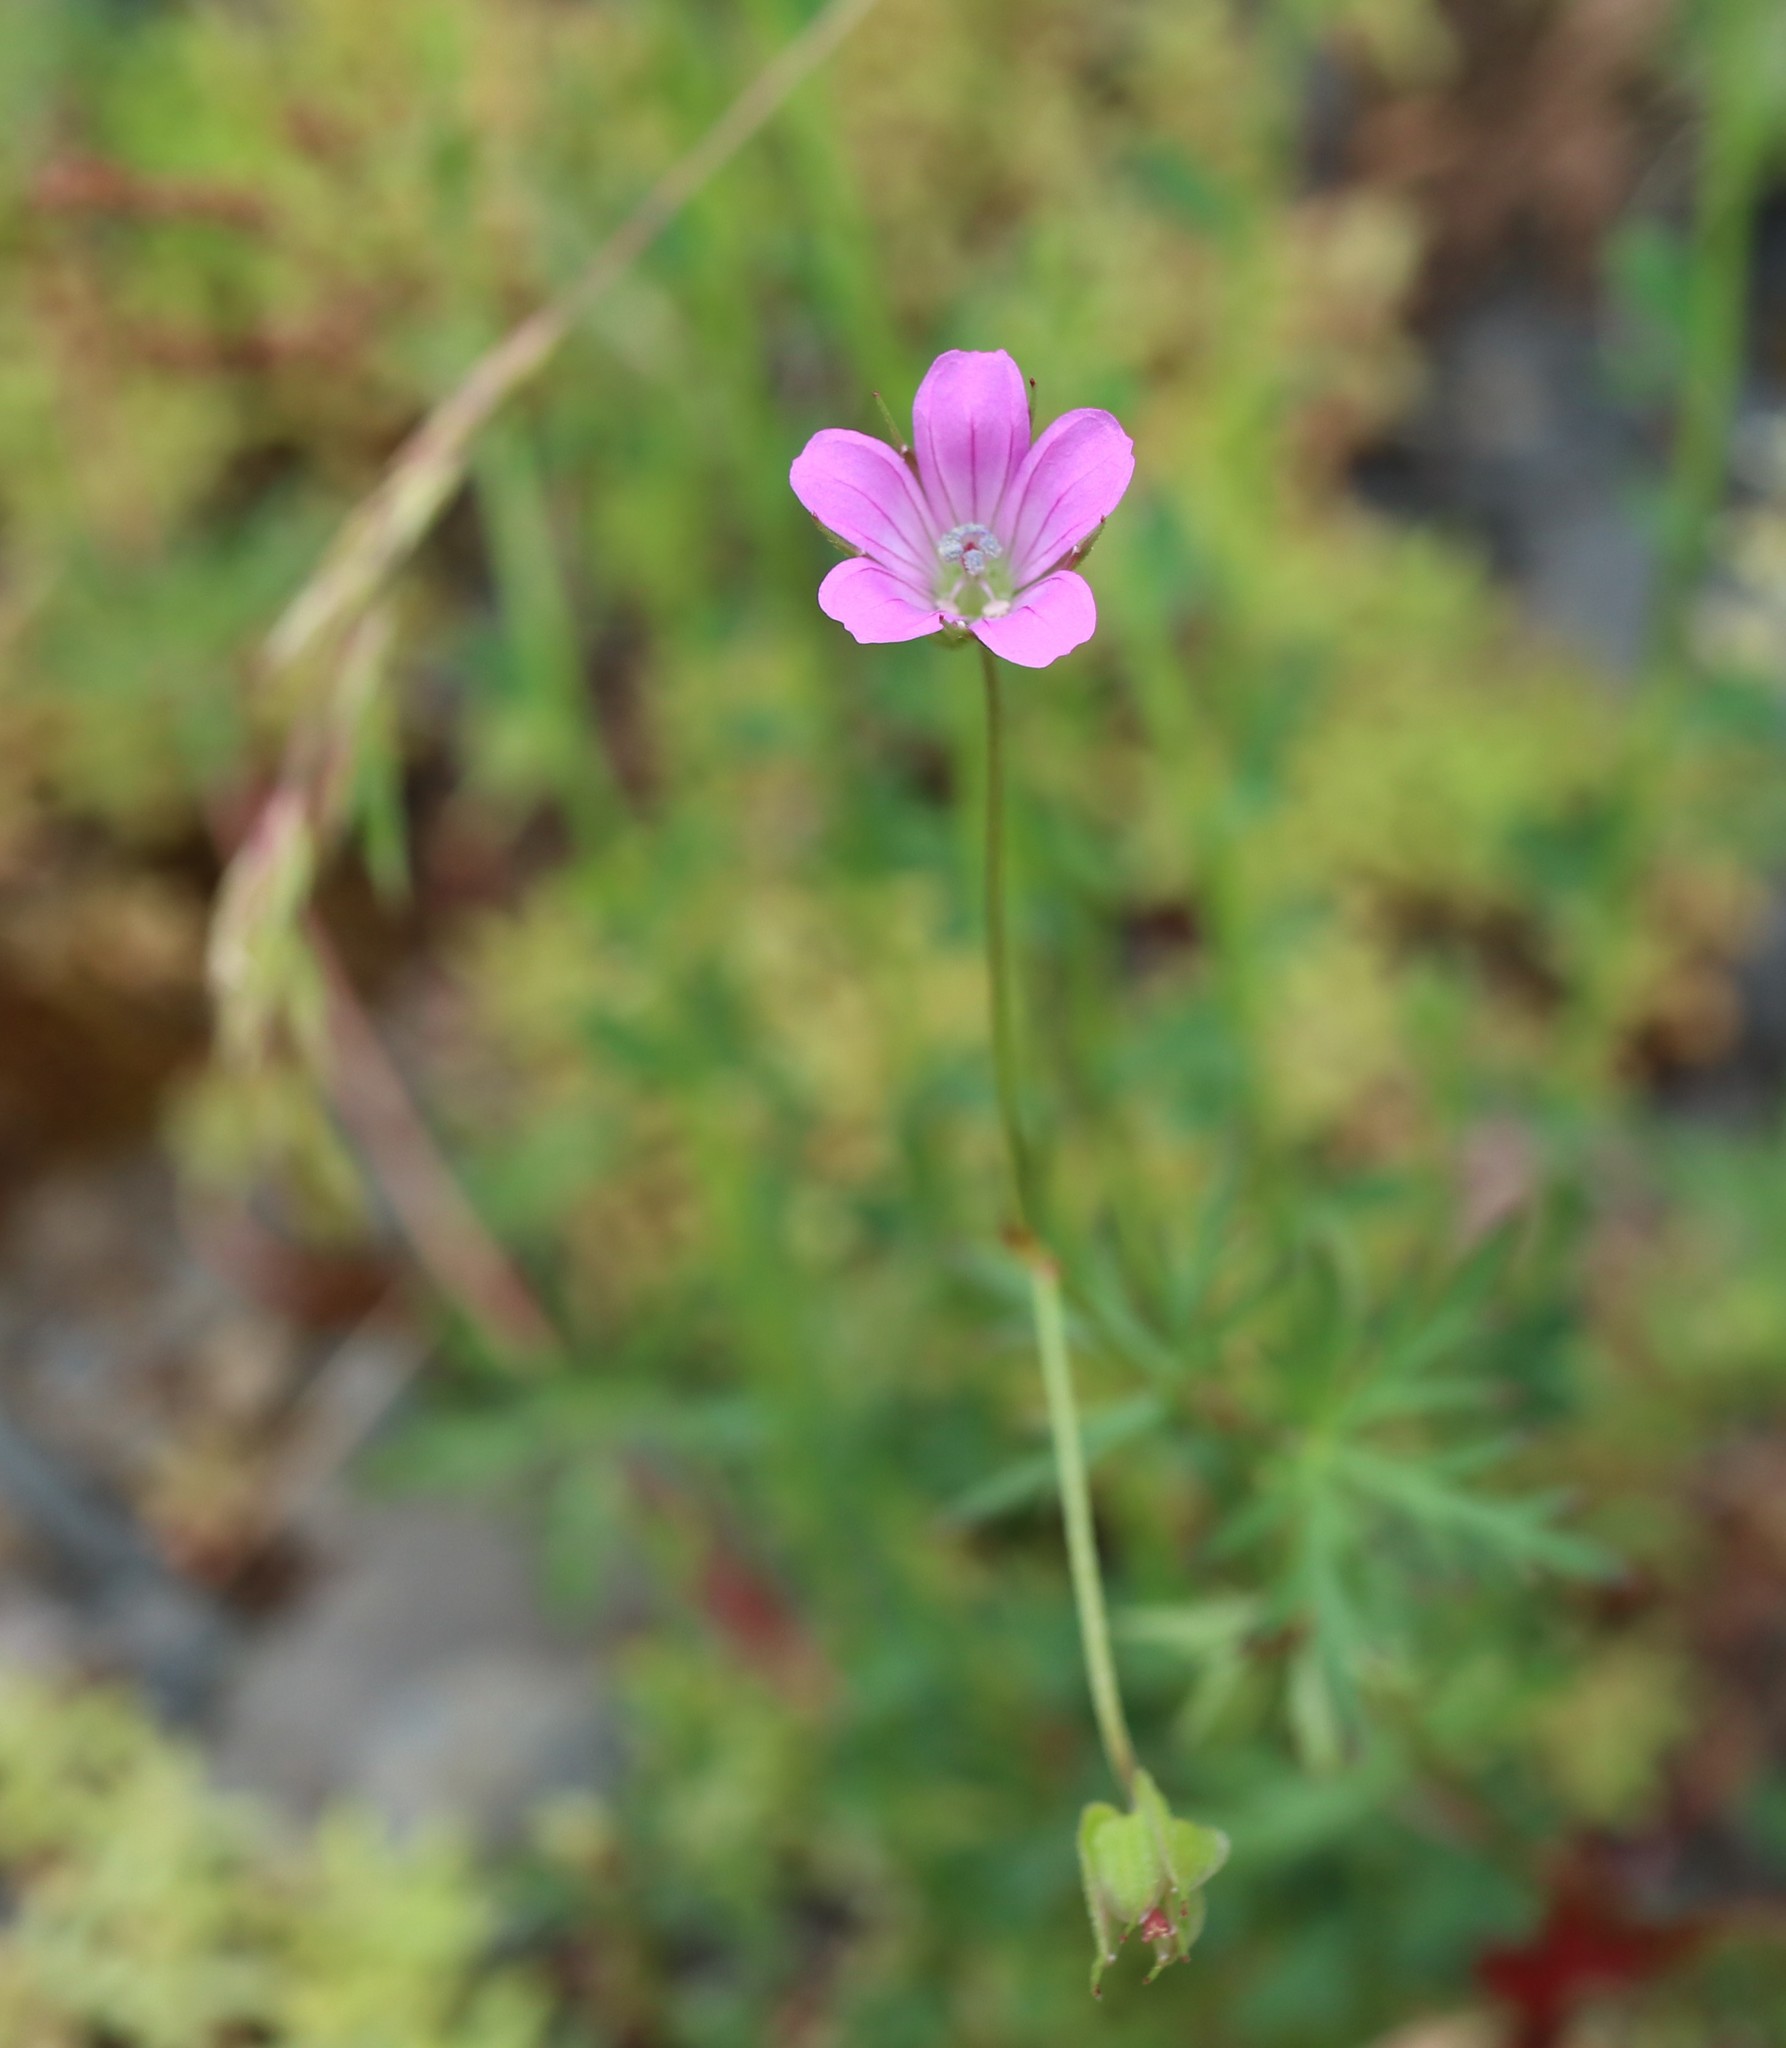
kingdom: Plantae
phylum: Tracheophyta
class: Magnoliopsida
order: Geraniales
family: Geraniaceae
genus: Geranium
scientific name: Geranium columbinum
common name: Long-stalked crane's-bill
